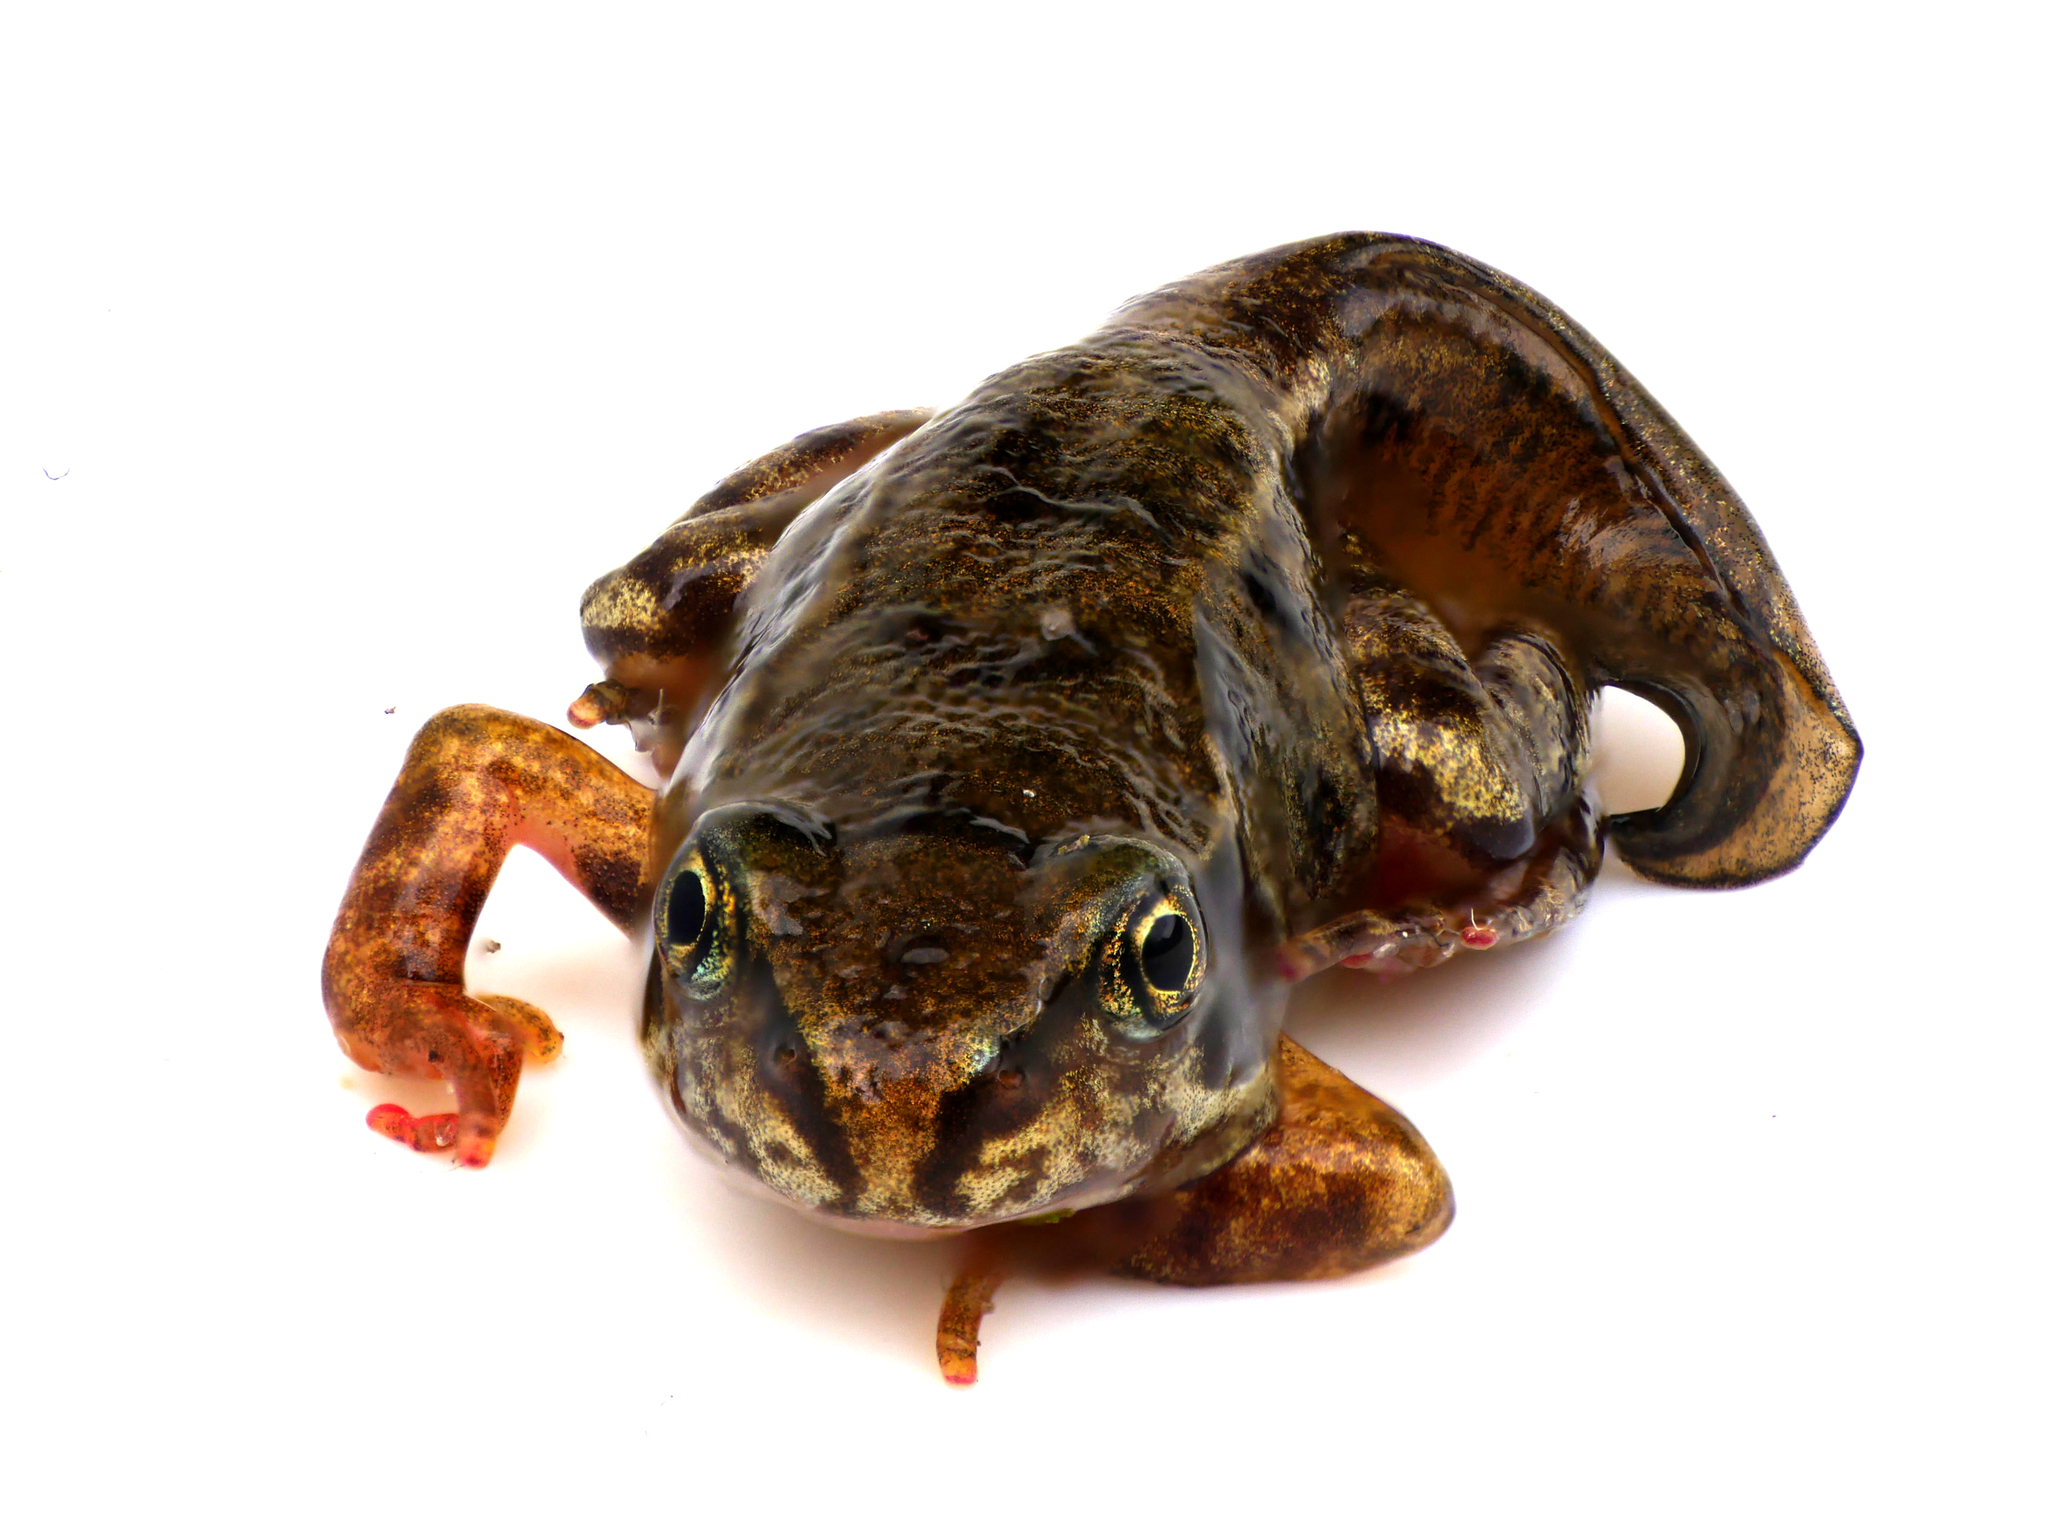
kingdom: Animalia
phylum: Chordata
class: Amphibia
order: Anura
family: Ranidae
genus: Rana
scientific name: Rana temporaria
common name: Common frog
